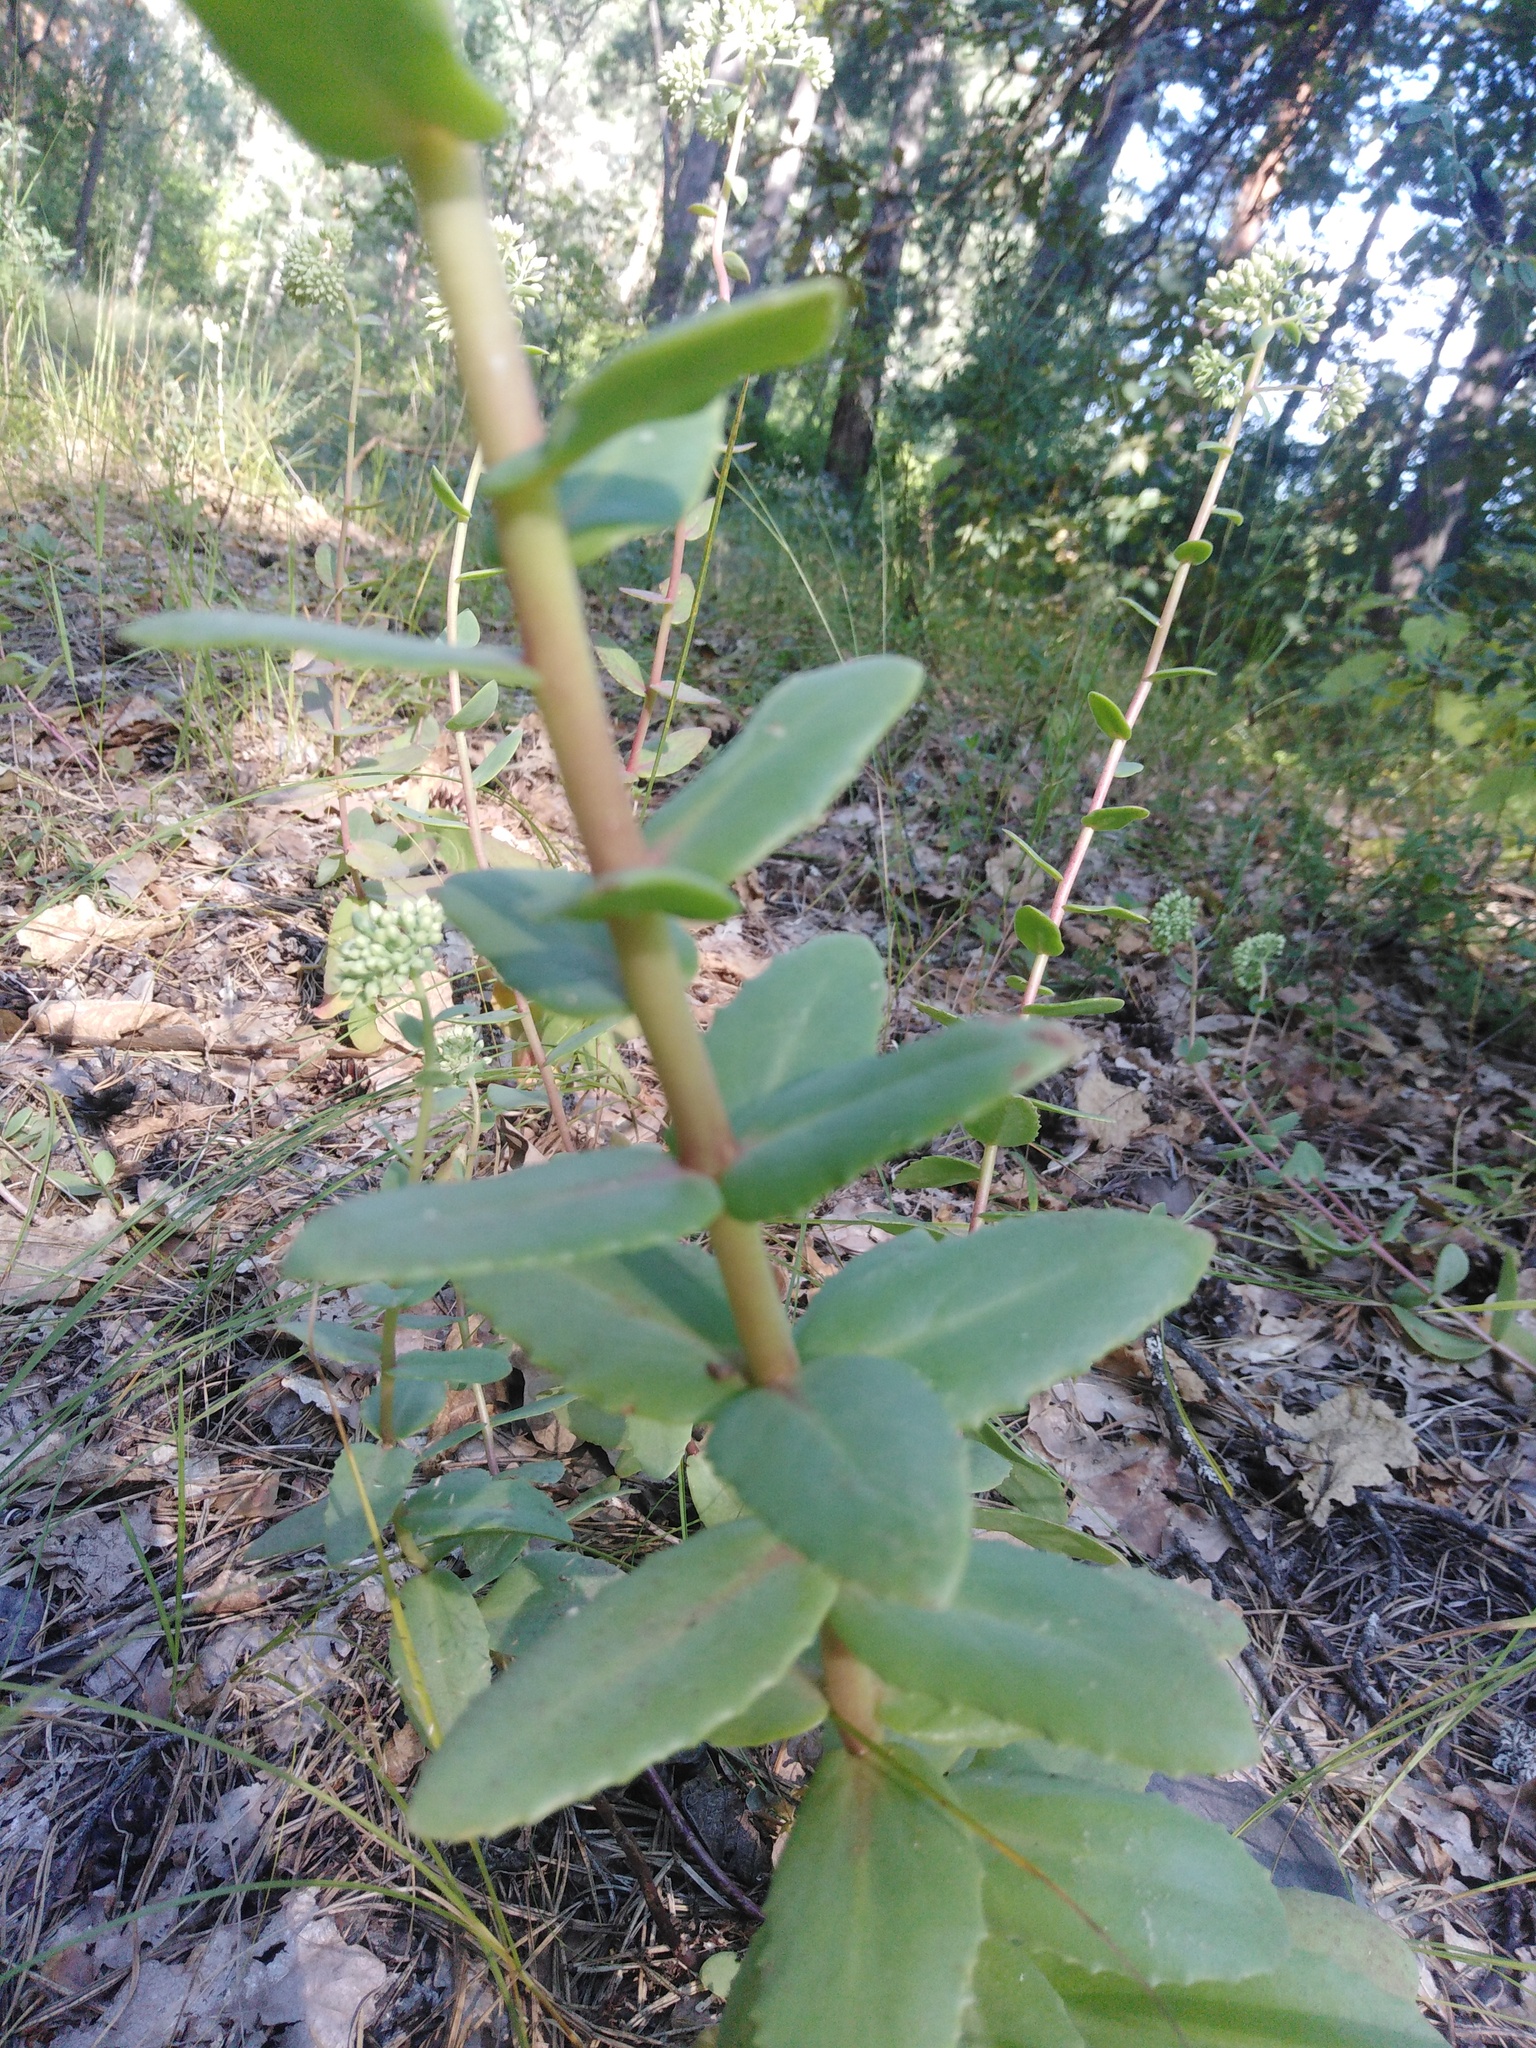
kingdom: Plantae
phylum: Tracheophyta
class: Magnoliopsida
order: Saxifragales
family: Crassulaceae
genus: Hylotelephium
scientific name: Hylotelephium maximum
